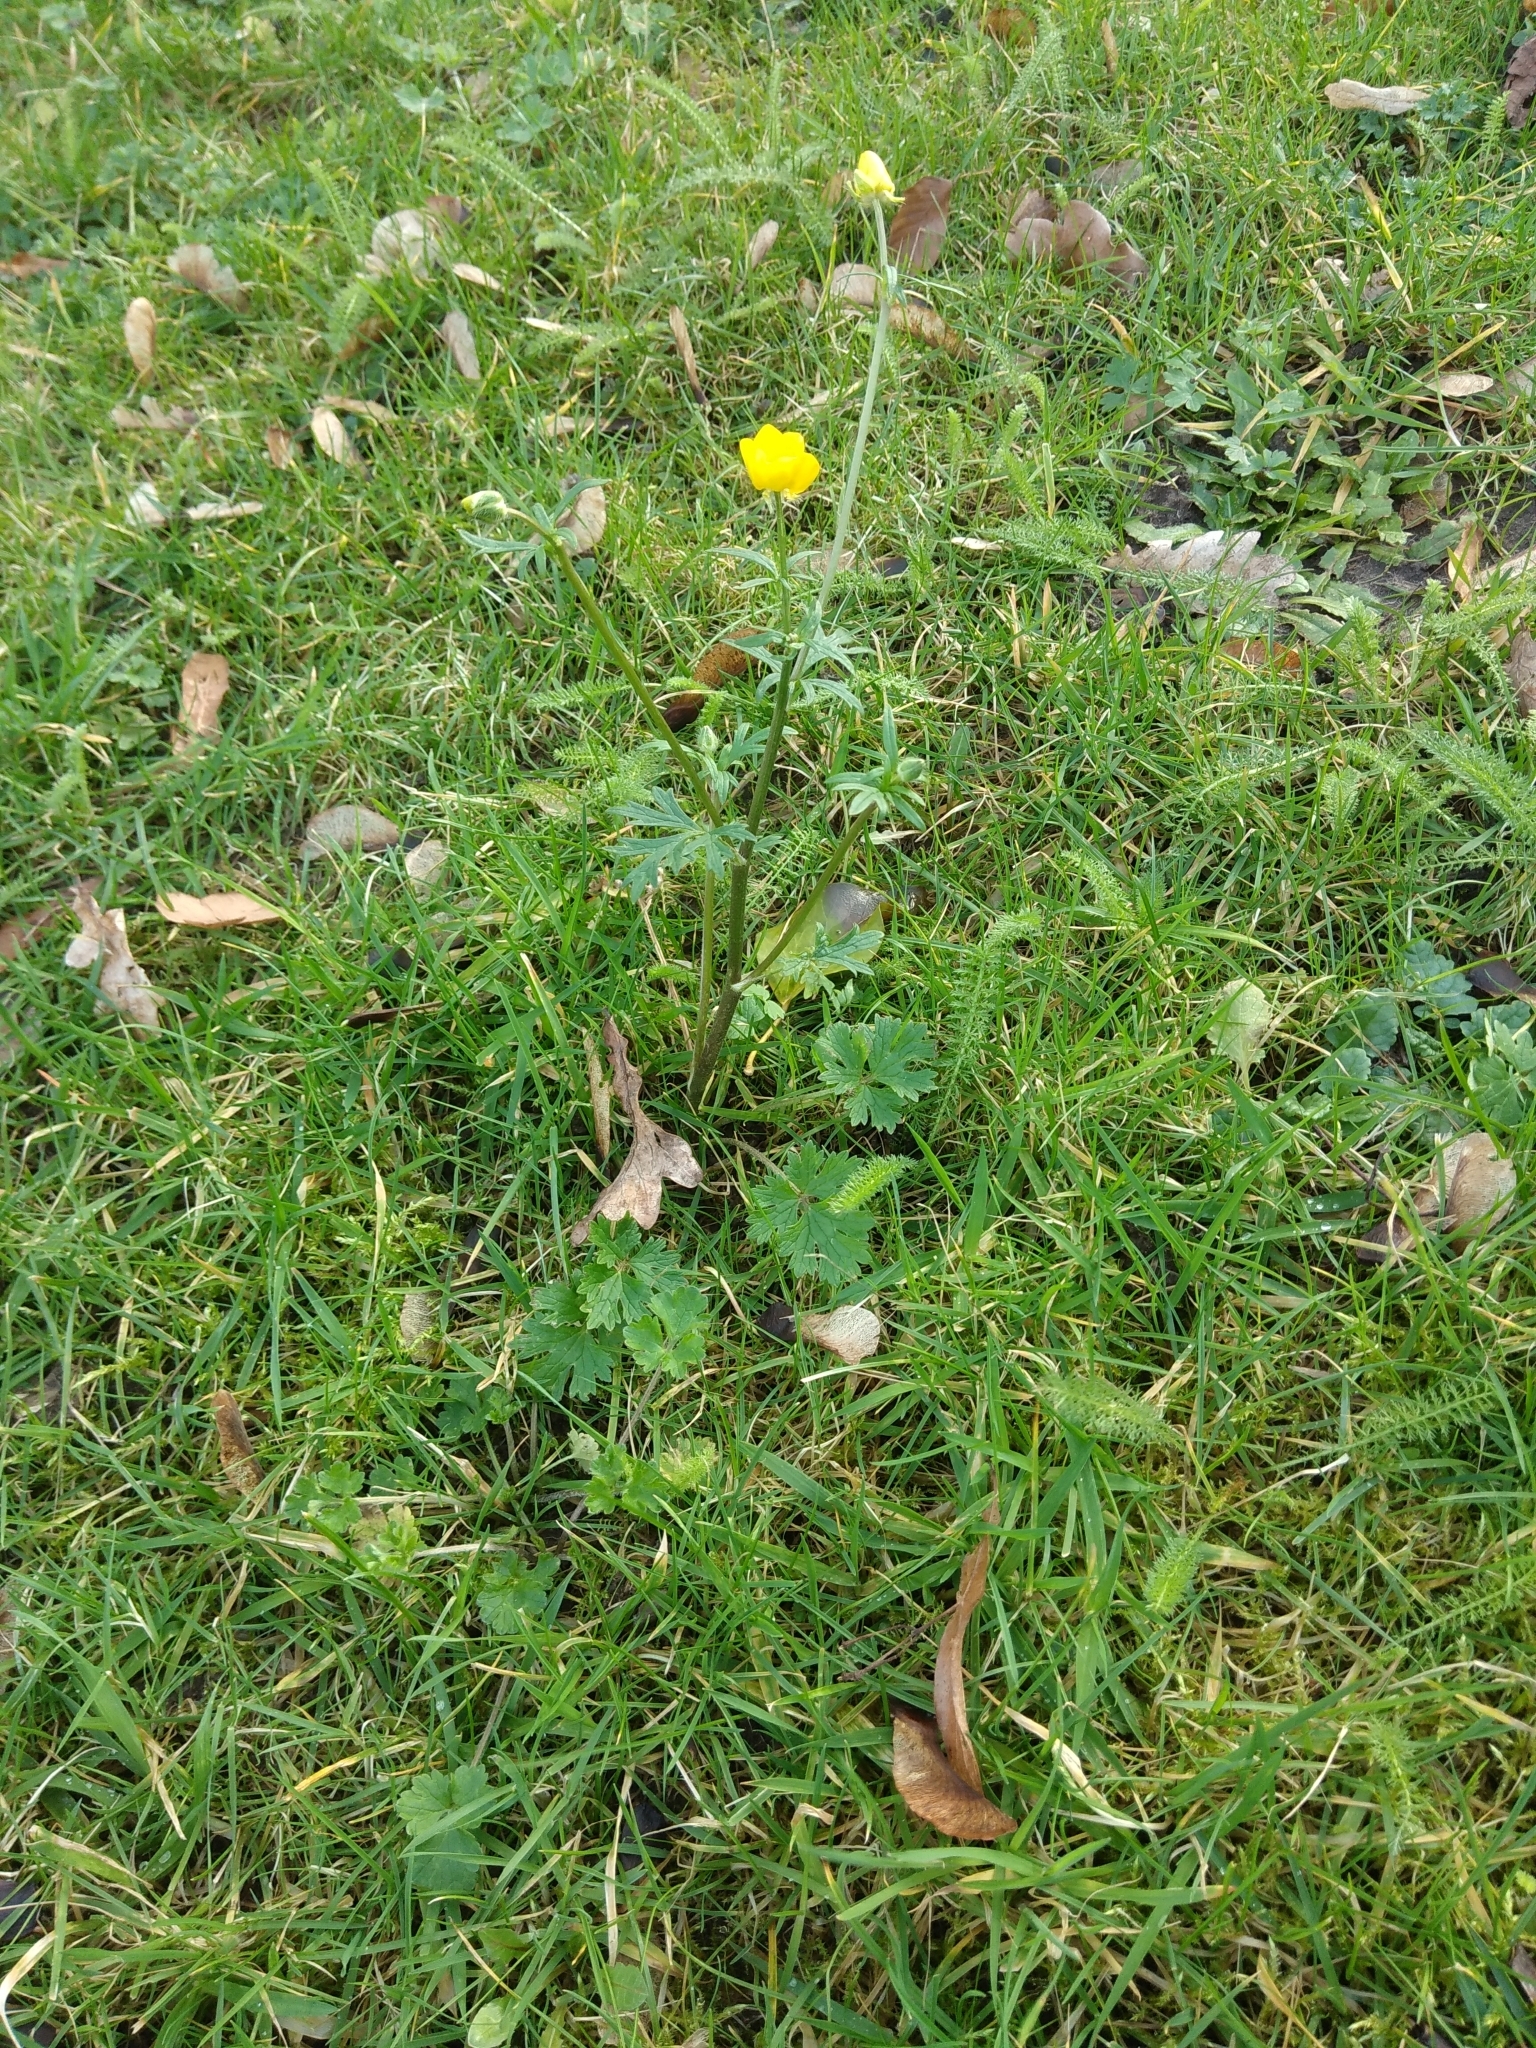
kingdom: Plantae
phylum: Tracheophyta
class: Magnoliopsida
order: Ranunculales
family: Ranunculaceae
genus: Ranunculus
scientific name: Ranunculus bulbosus
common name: Bulbous buttercup
